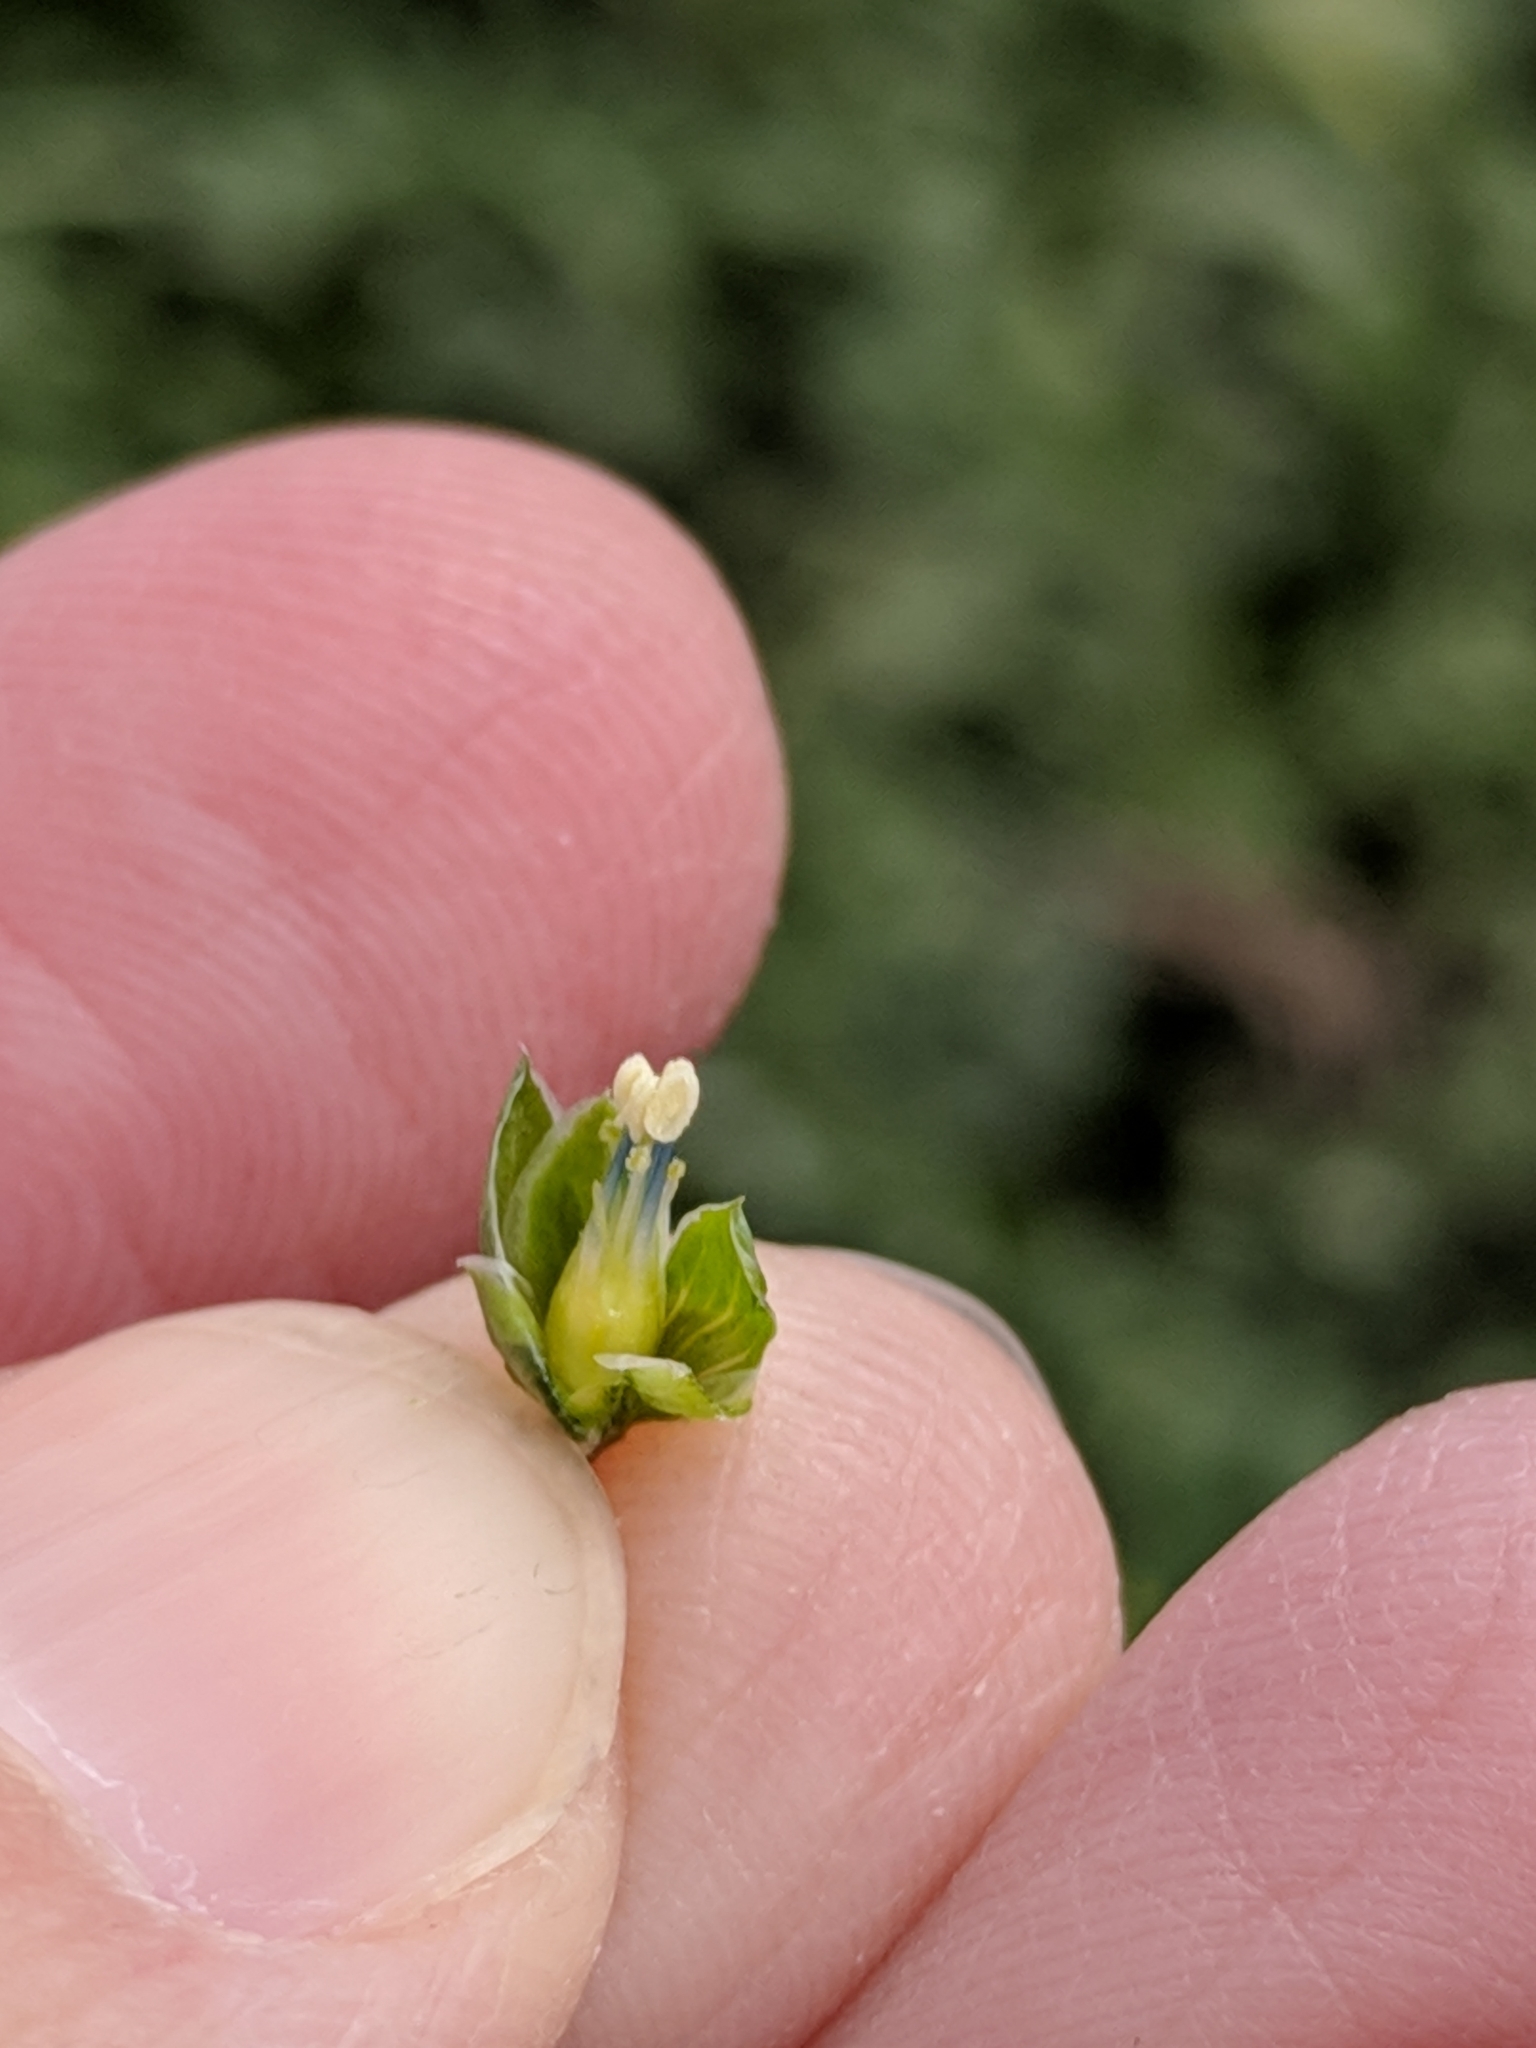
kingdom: Plantae
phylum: Tracheophyta
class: Magnoliopsida
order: Malpighiales
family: Linaceae
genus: Linum
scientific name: Linum lewisii
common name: Prairie flax
